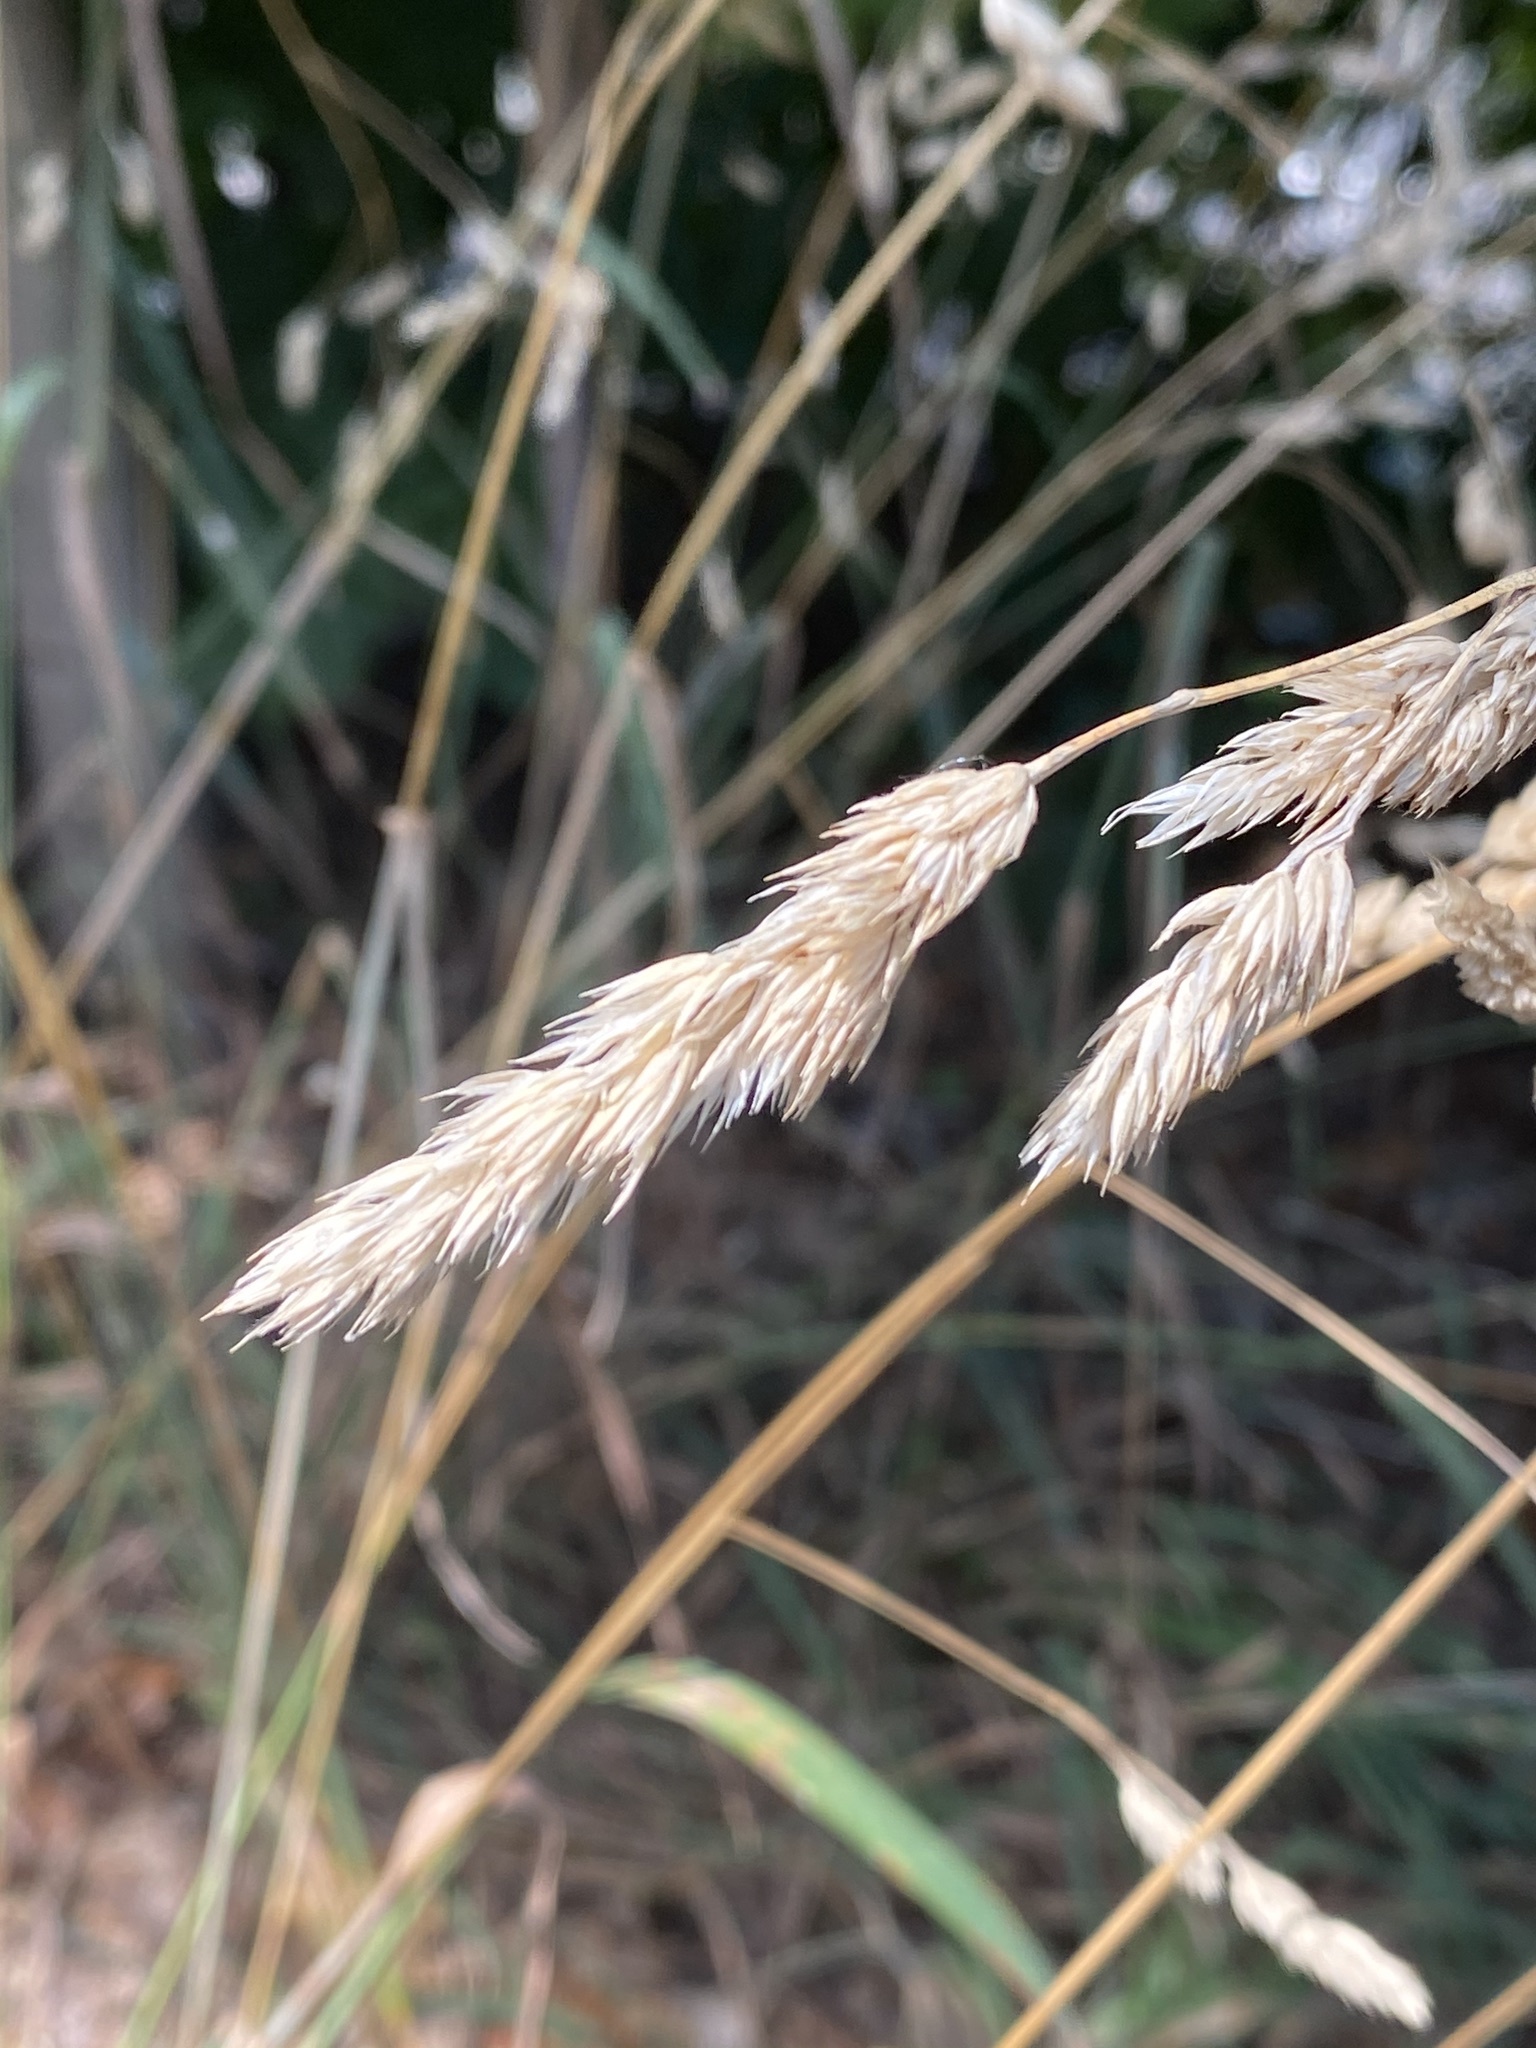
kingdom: Plantae
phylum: Tracheophyta
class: Liliopsida
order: Poales
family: Poaceae
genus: Dactylis
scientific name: Dactylis glomerata
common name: Orchardgrass
